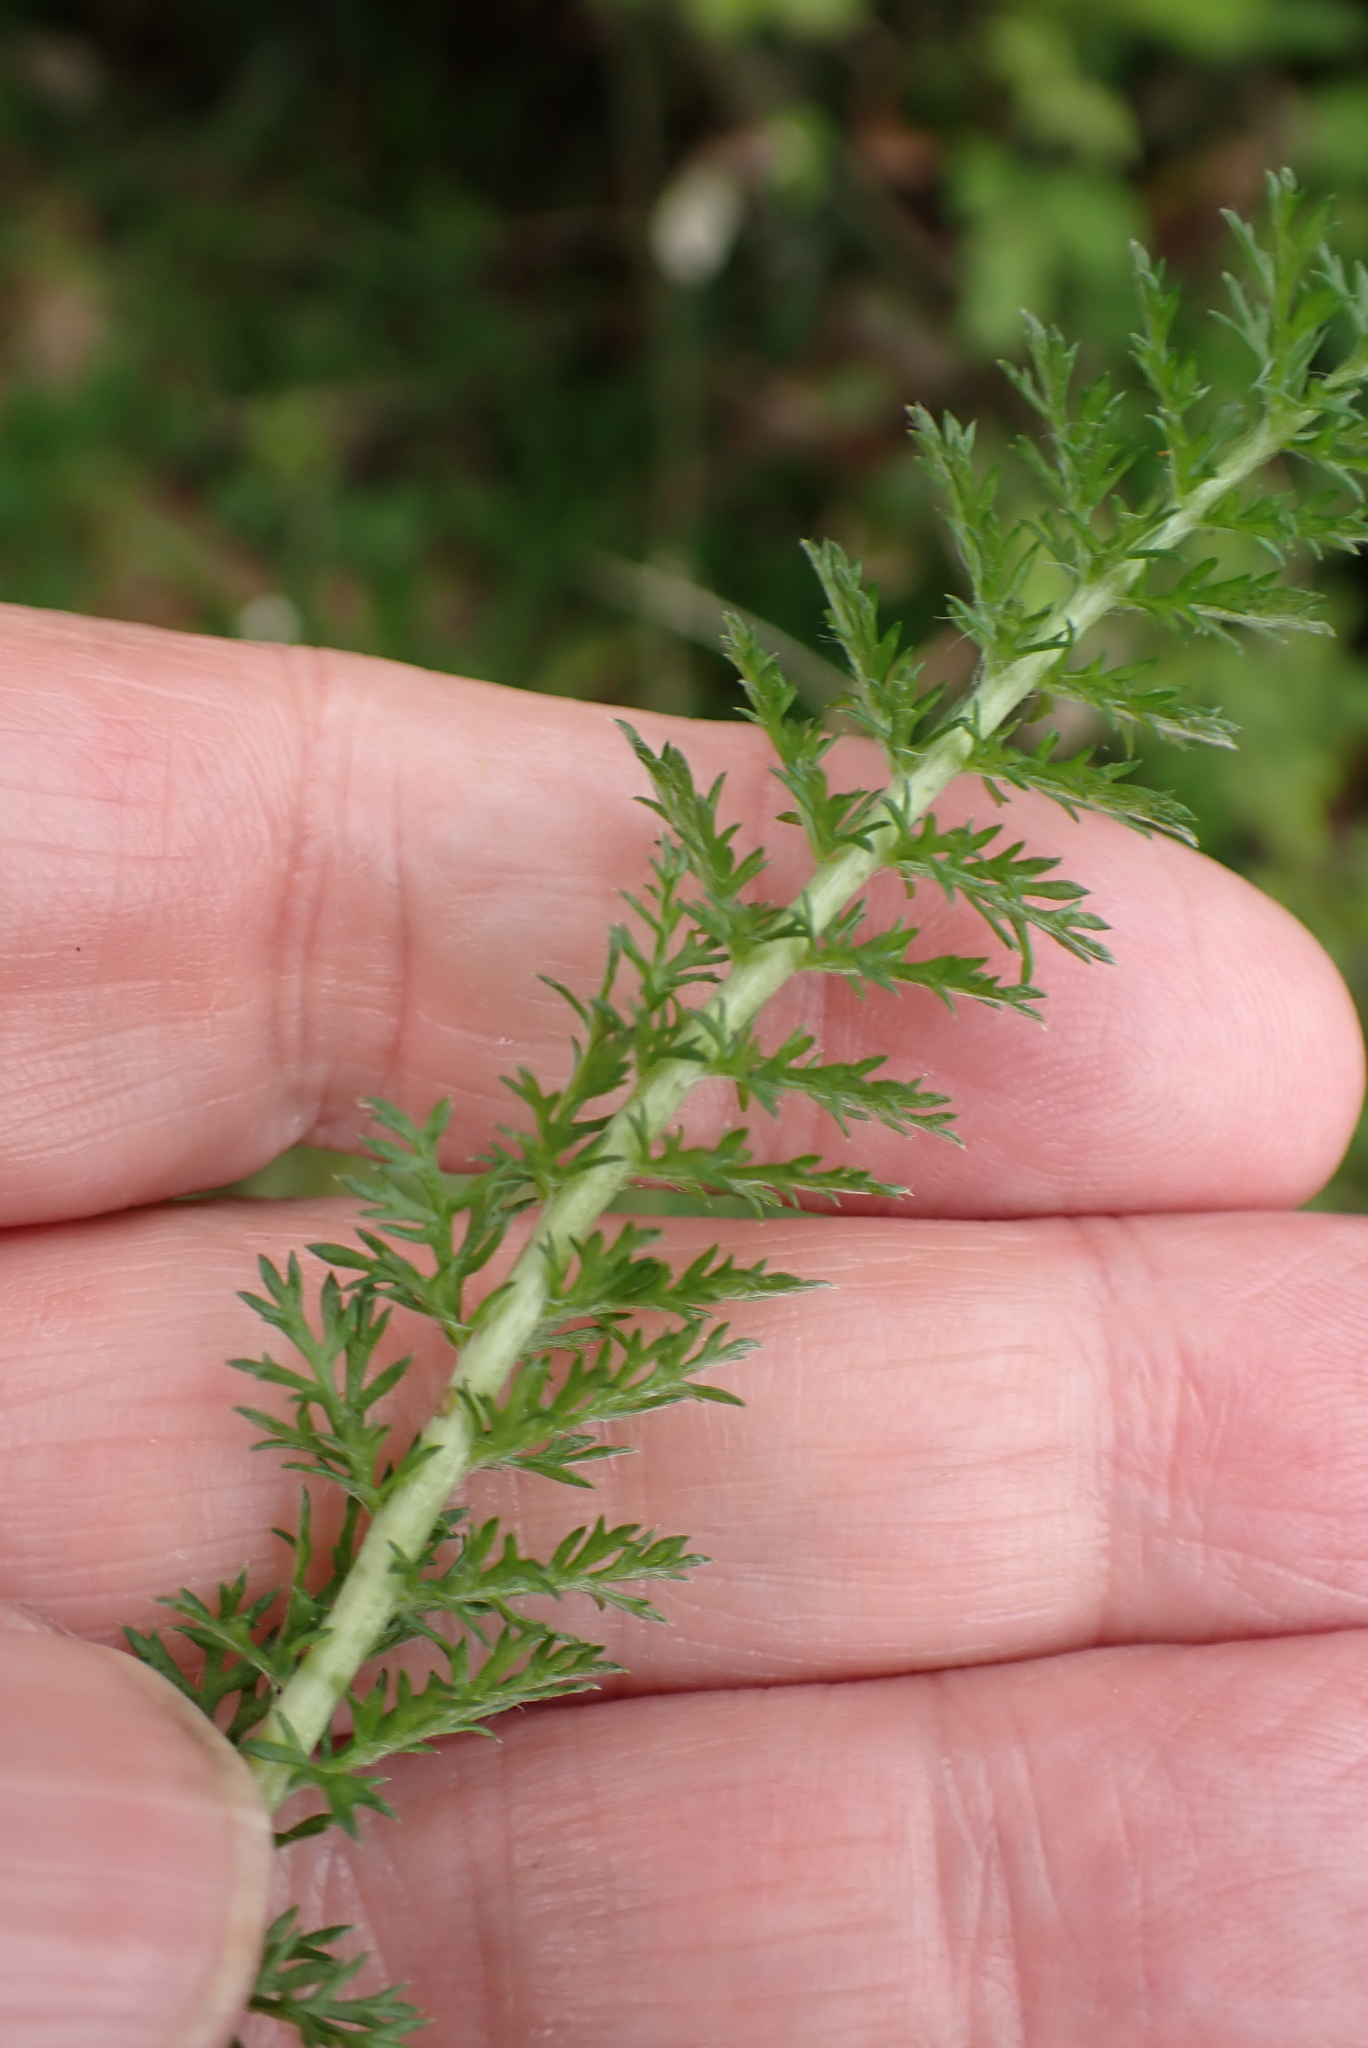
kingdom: Plantae
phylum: Tracheophyta
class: Magnoliopsida
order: Asterales
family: Asteraceae
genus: Achillea
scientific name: Achillea millefolium
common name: Yarrow
